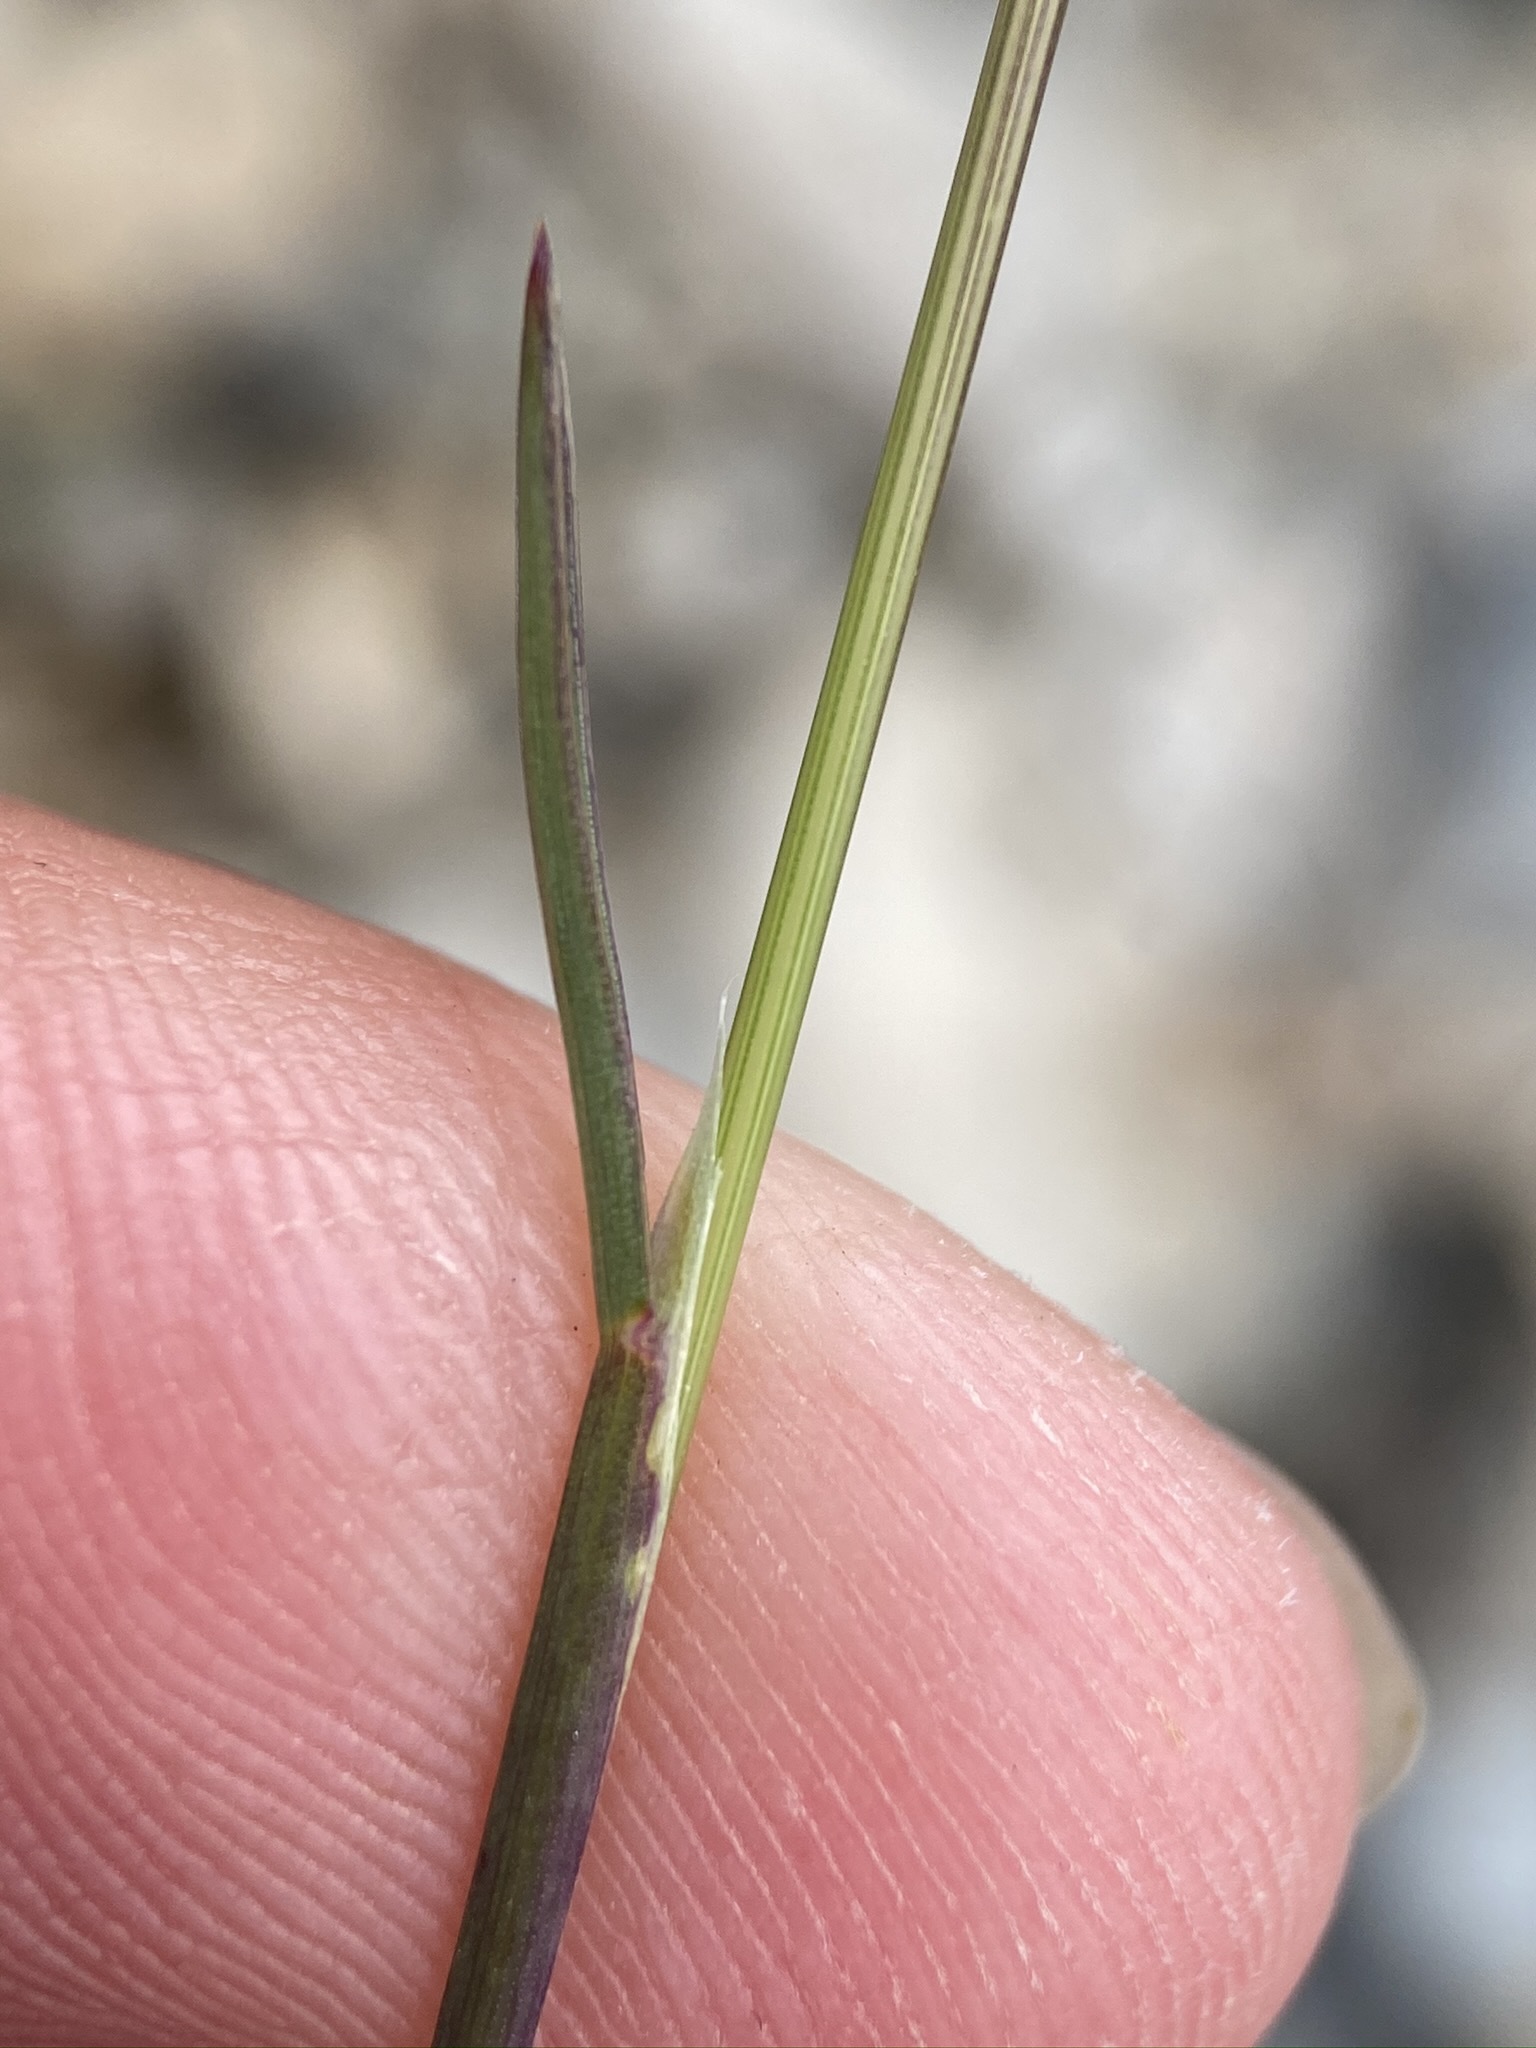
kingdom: Plantae
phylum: Tracheophyta
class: Liliopsida
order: Poales
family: Poaceae
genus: Poa
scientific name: Poa secunda
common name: Sandberg bluegrass
